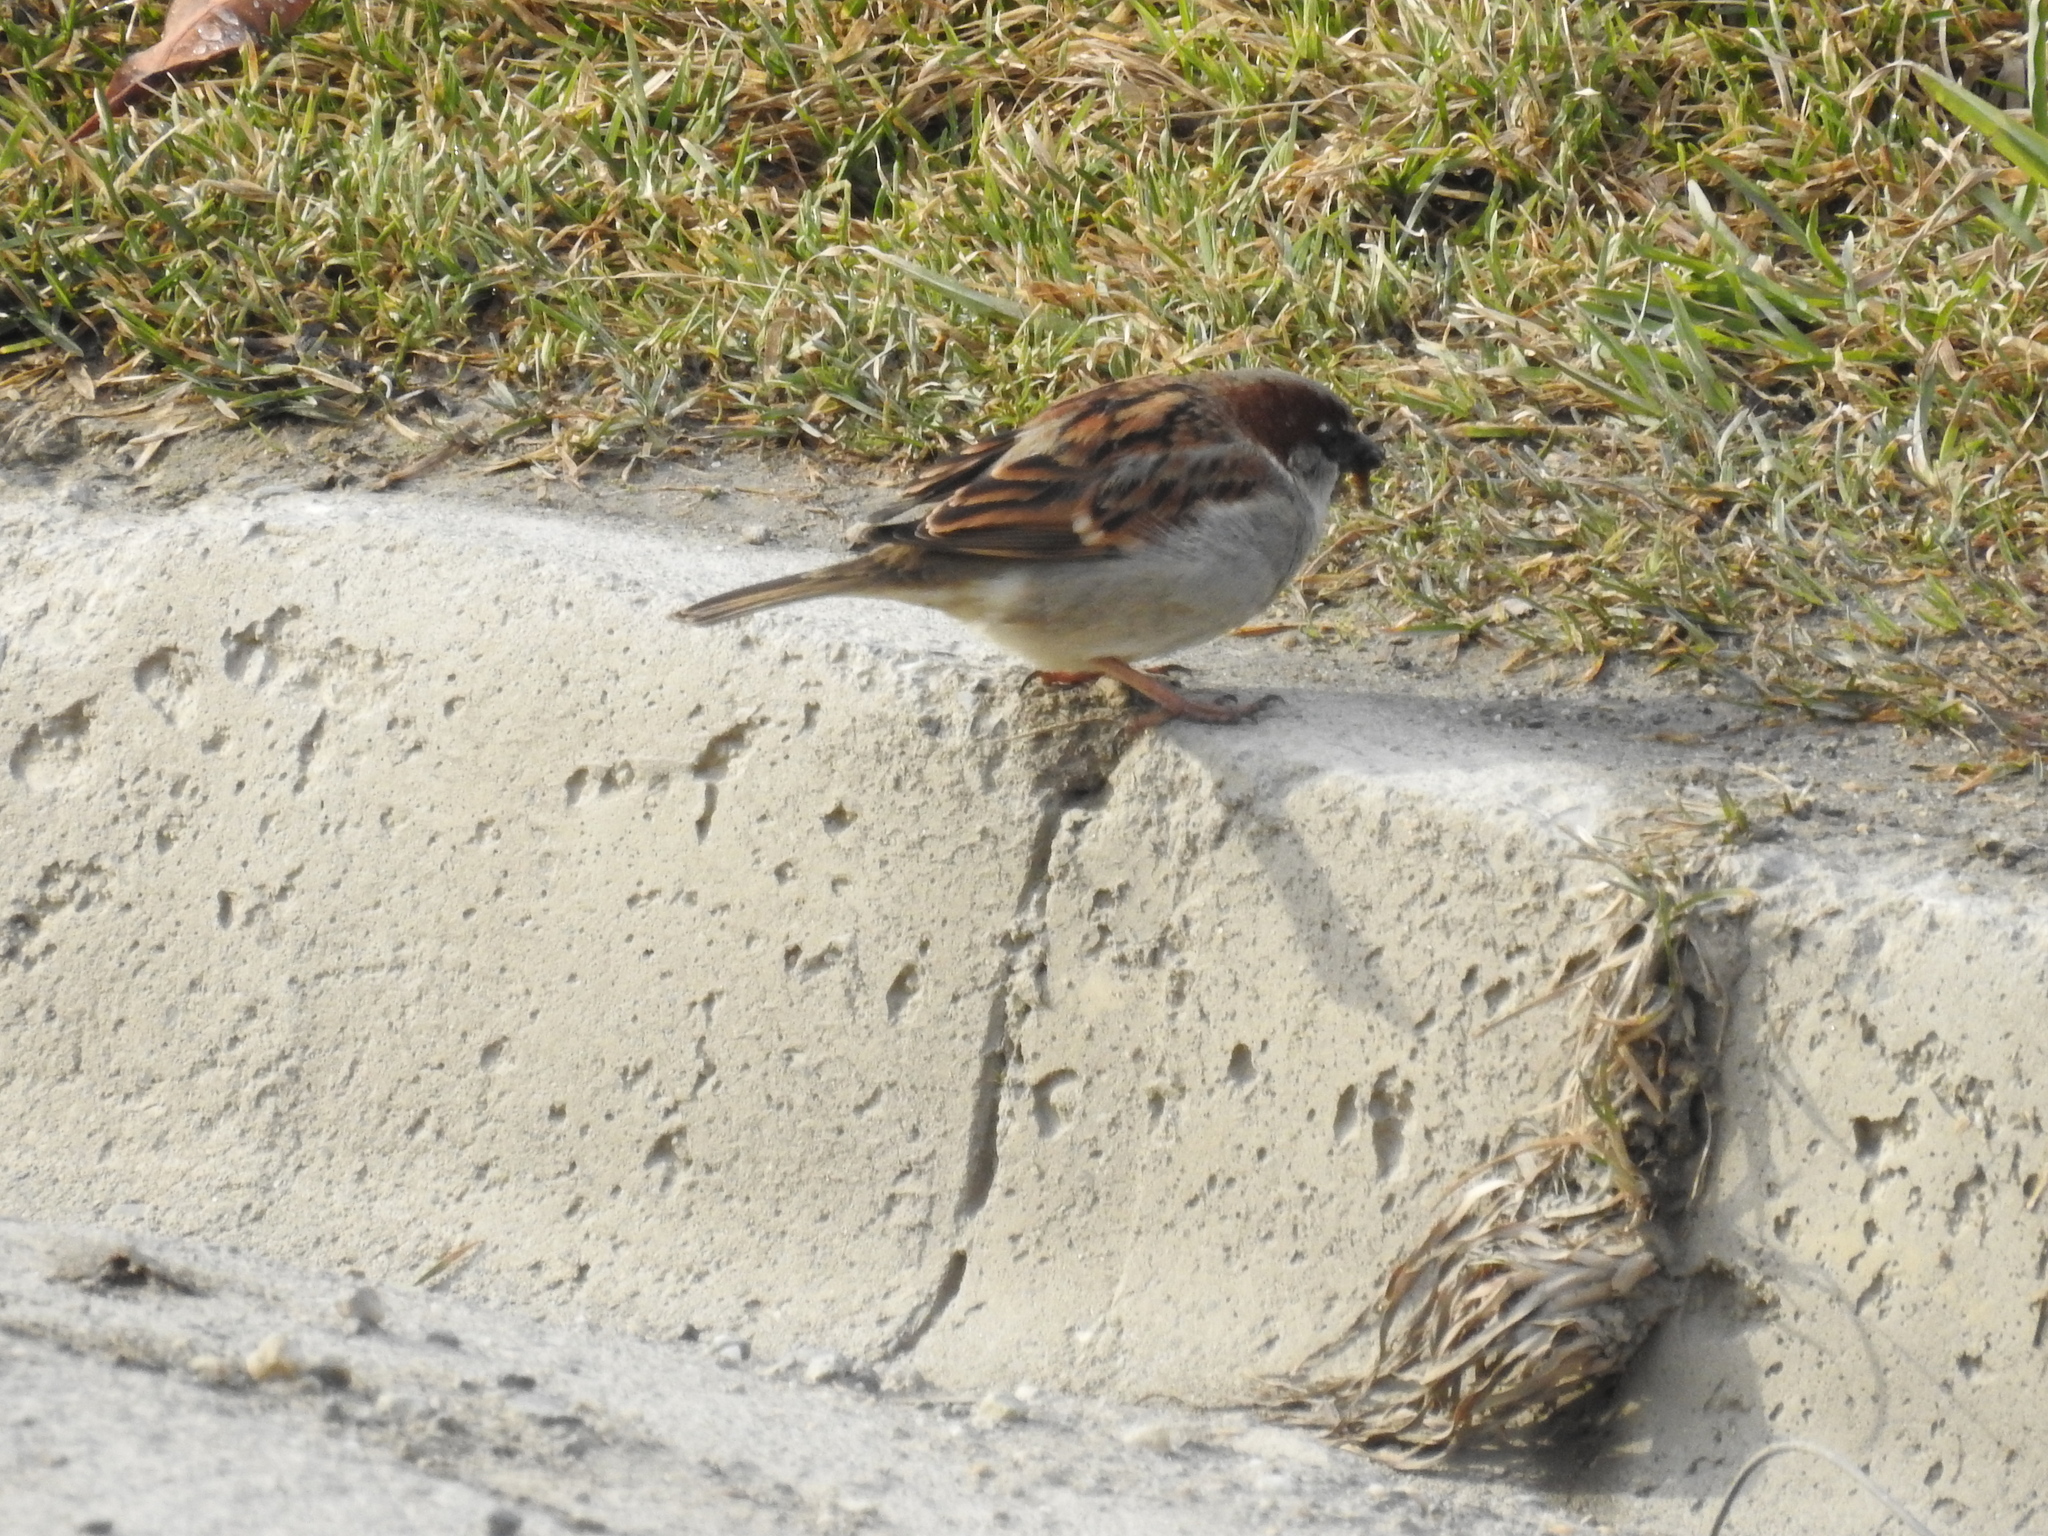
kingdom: Animalia
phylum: Chordata
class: Aves
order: Passeriformes
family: Passeridae
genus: Passer
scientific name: Passer domesticus
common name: House sparrow
